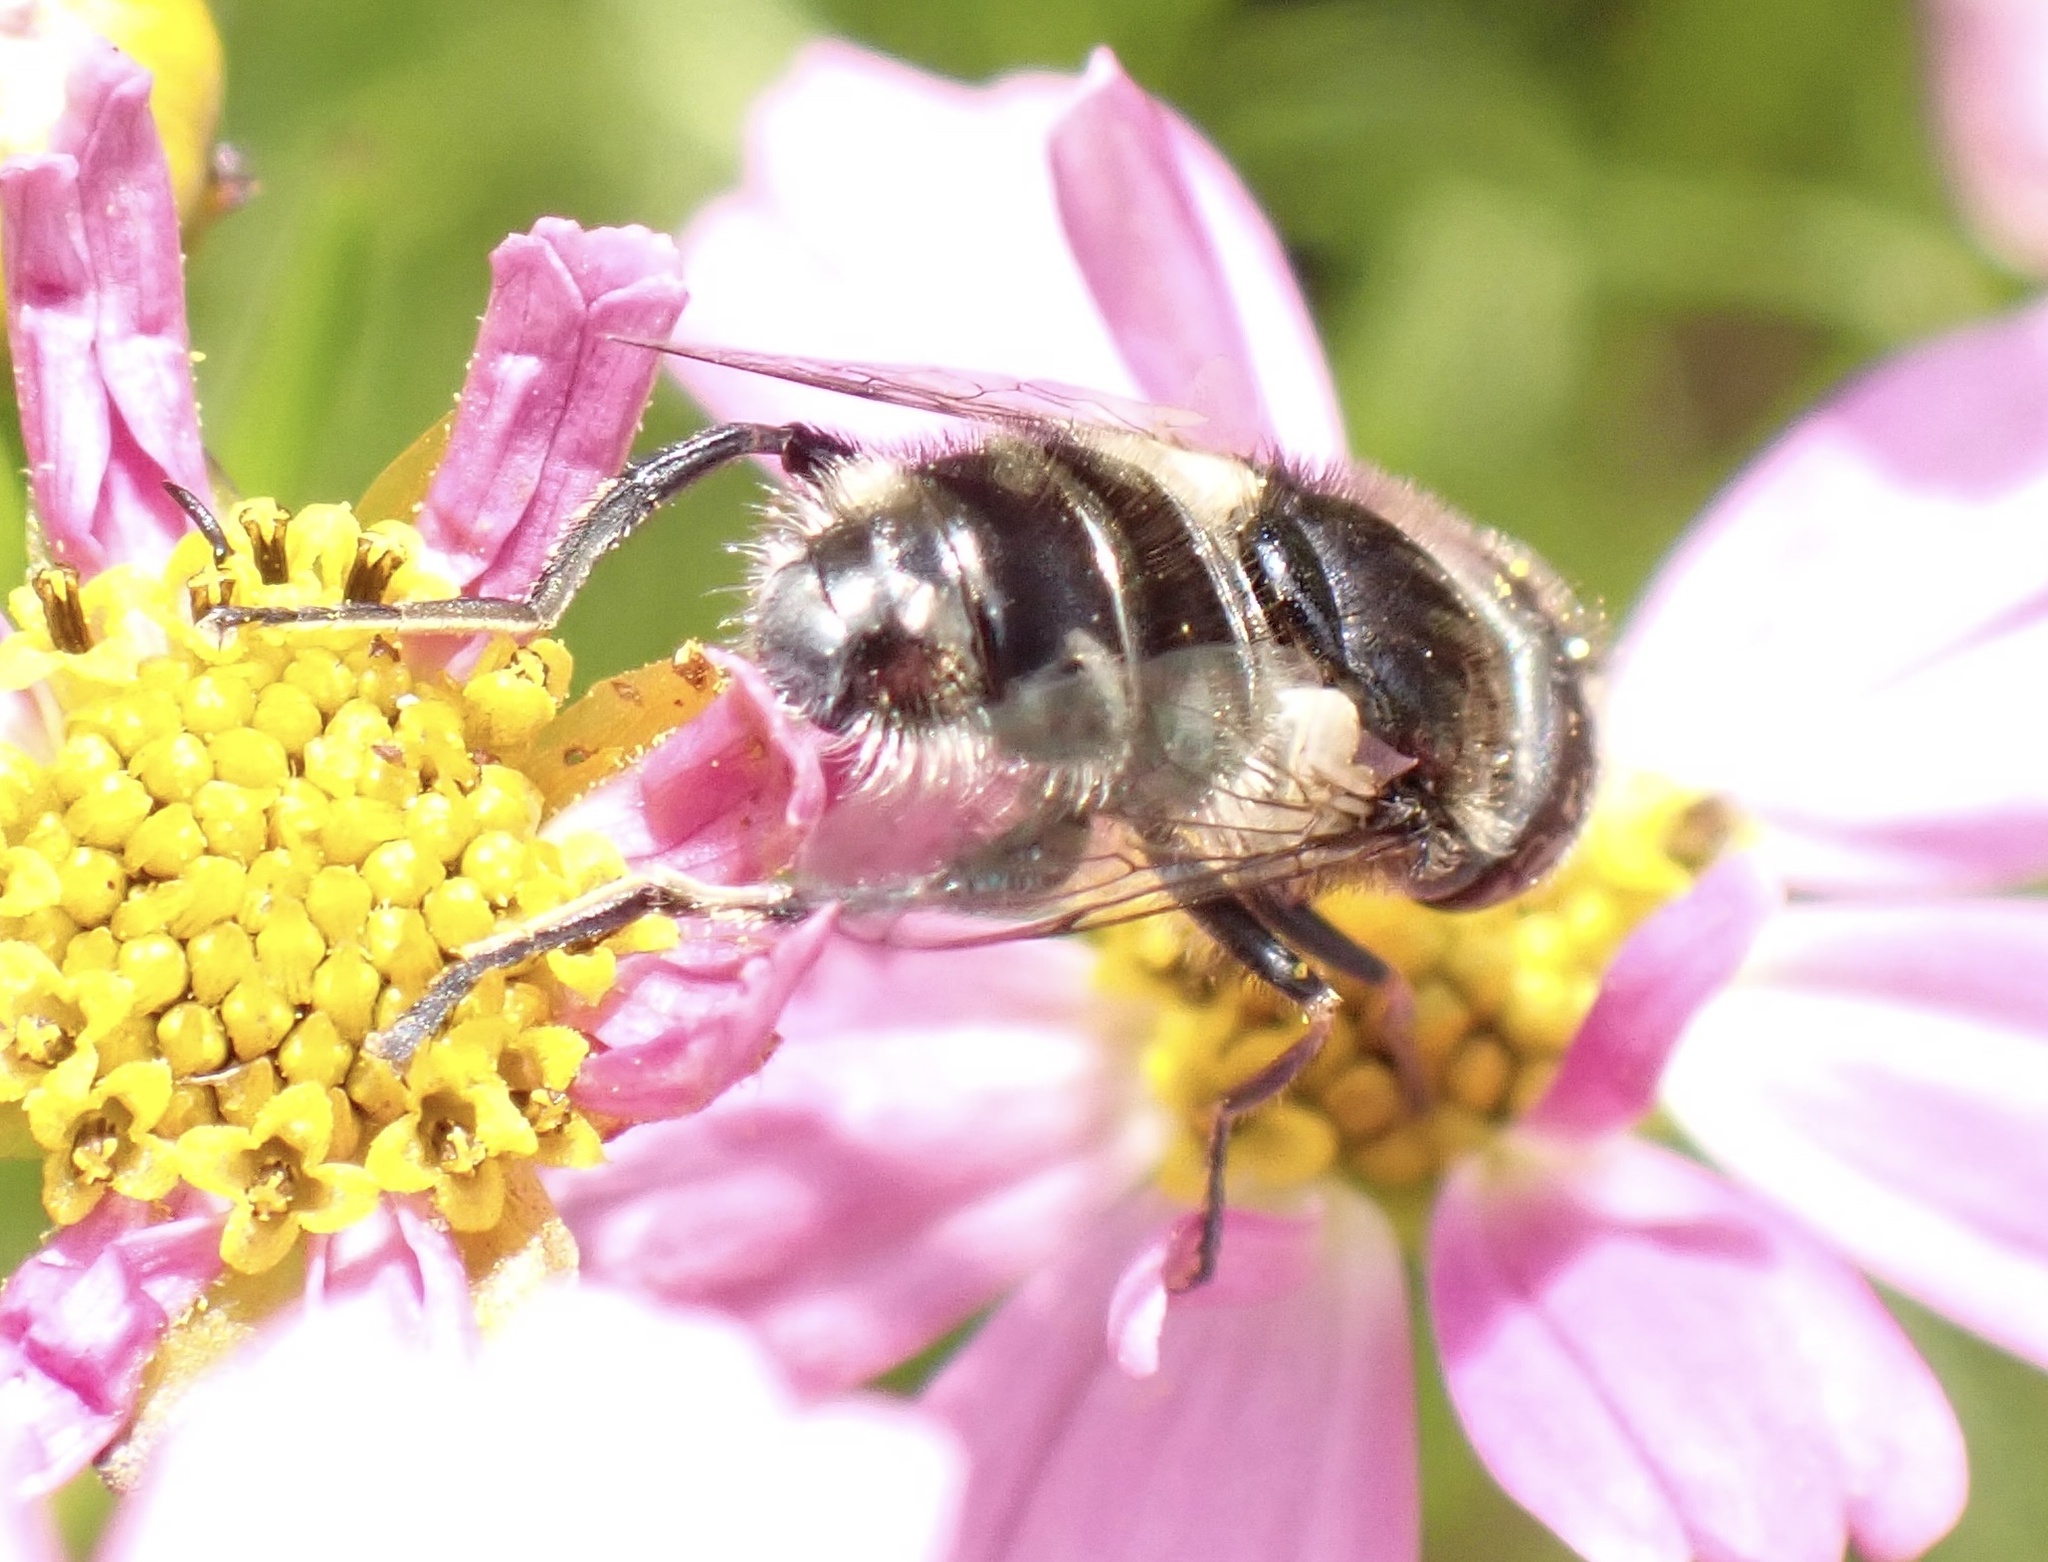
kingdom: Animalia
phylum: Arthropoda
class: Insecta
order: Diptera
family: Syrphidae
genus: Eristalinus
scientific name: Eristalinus sepulchralis
